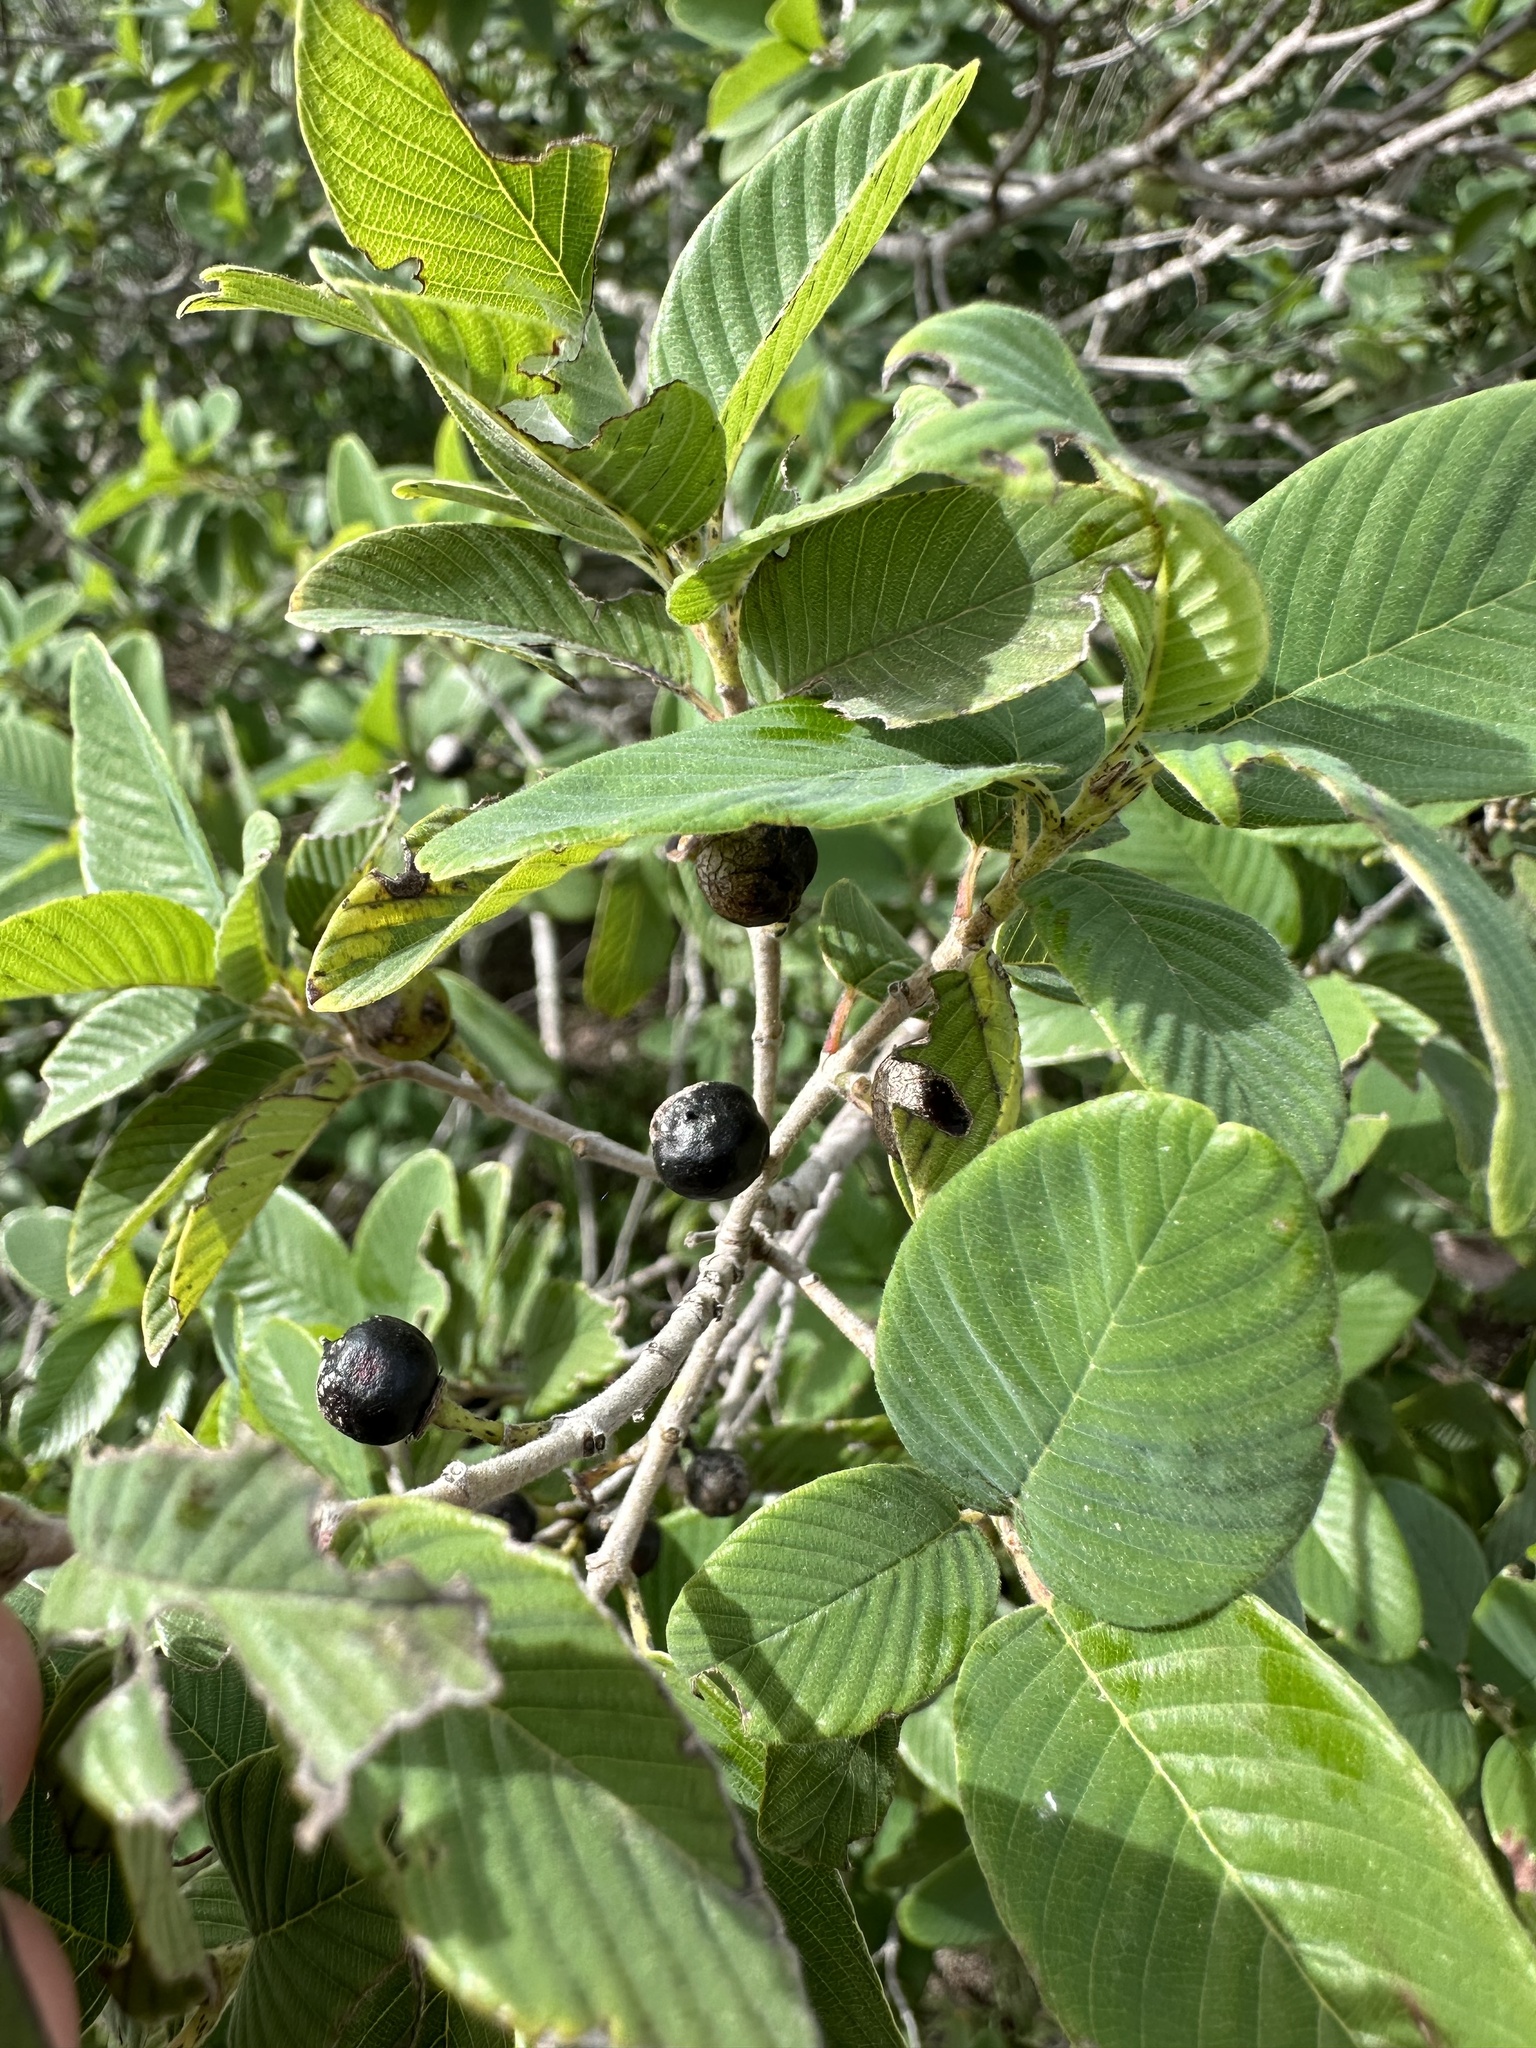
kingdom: Plantae
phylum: Tracheophyta
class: Magnoliopsida
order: Rosales
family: Rhamnaceae
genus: Karwinskia
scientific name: Karwinskia humboldtiana
